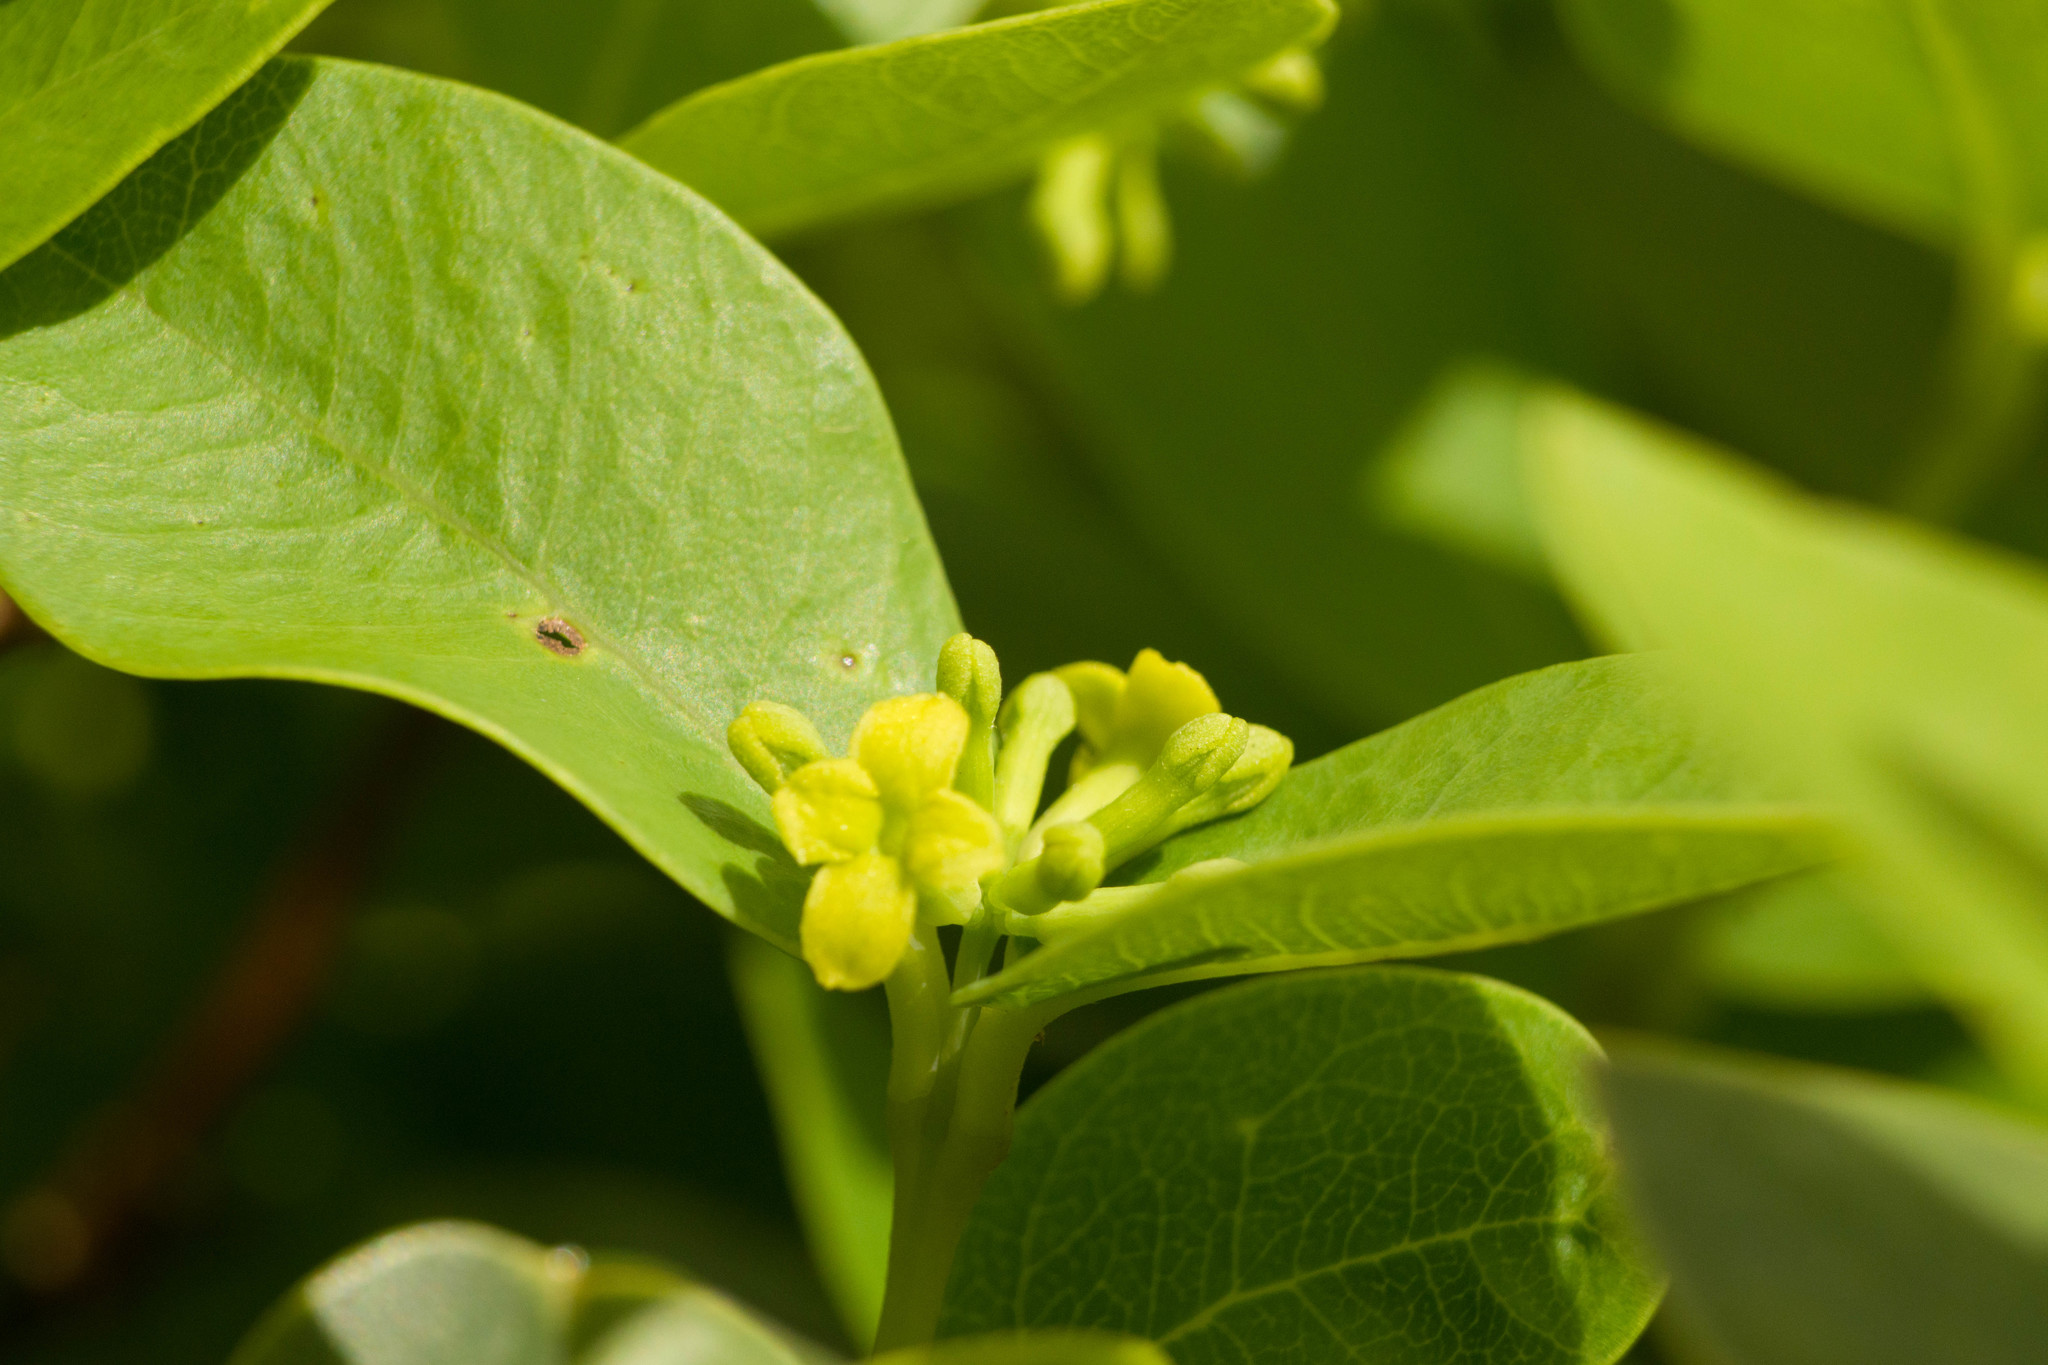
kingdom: Plantae
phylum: Tracheophyta
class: Magnoliopsida
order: Malvales
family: Thymelaeaceae
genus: Wikstroemia
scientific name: Wikstroemia oahuensis
